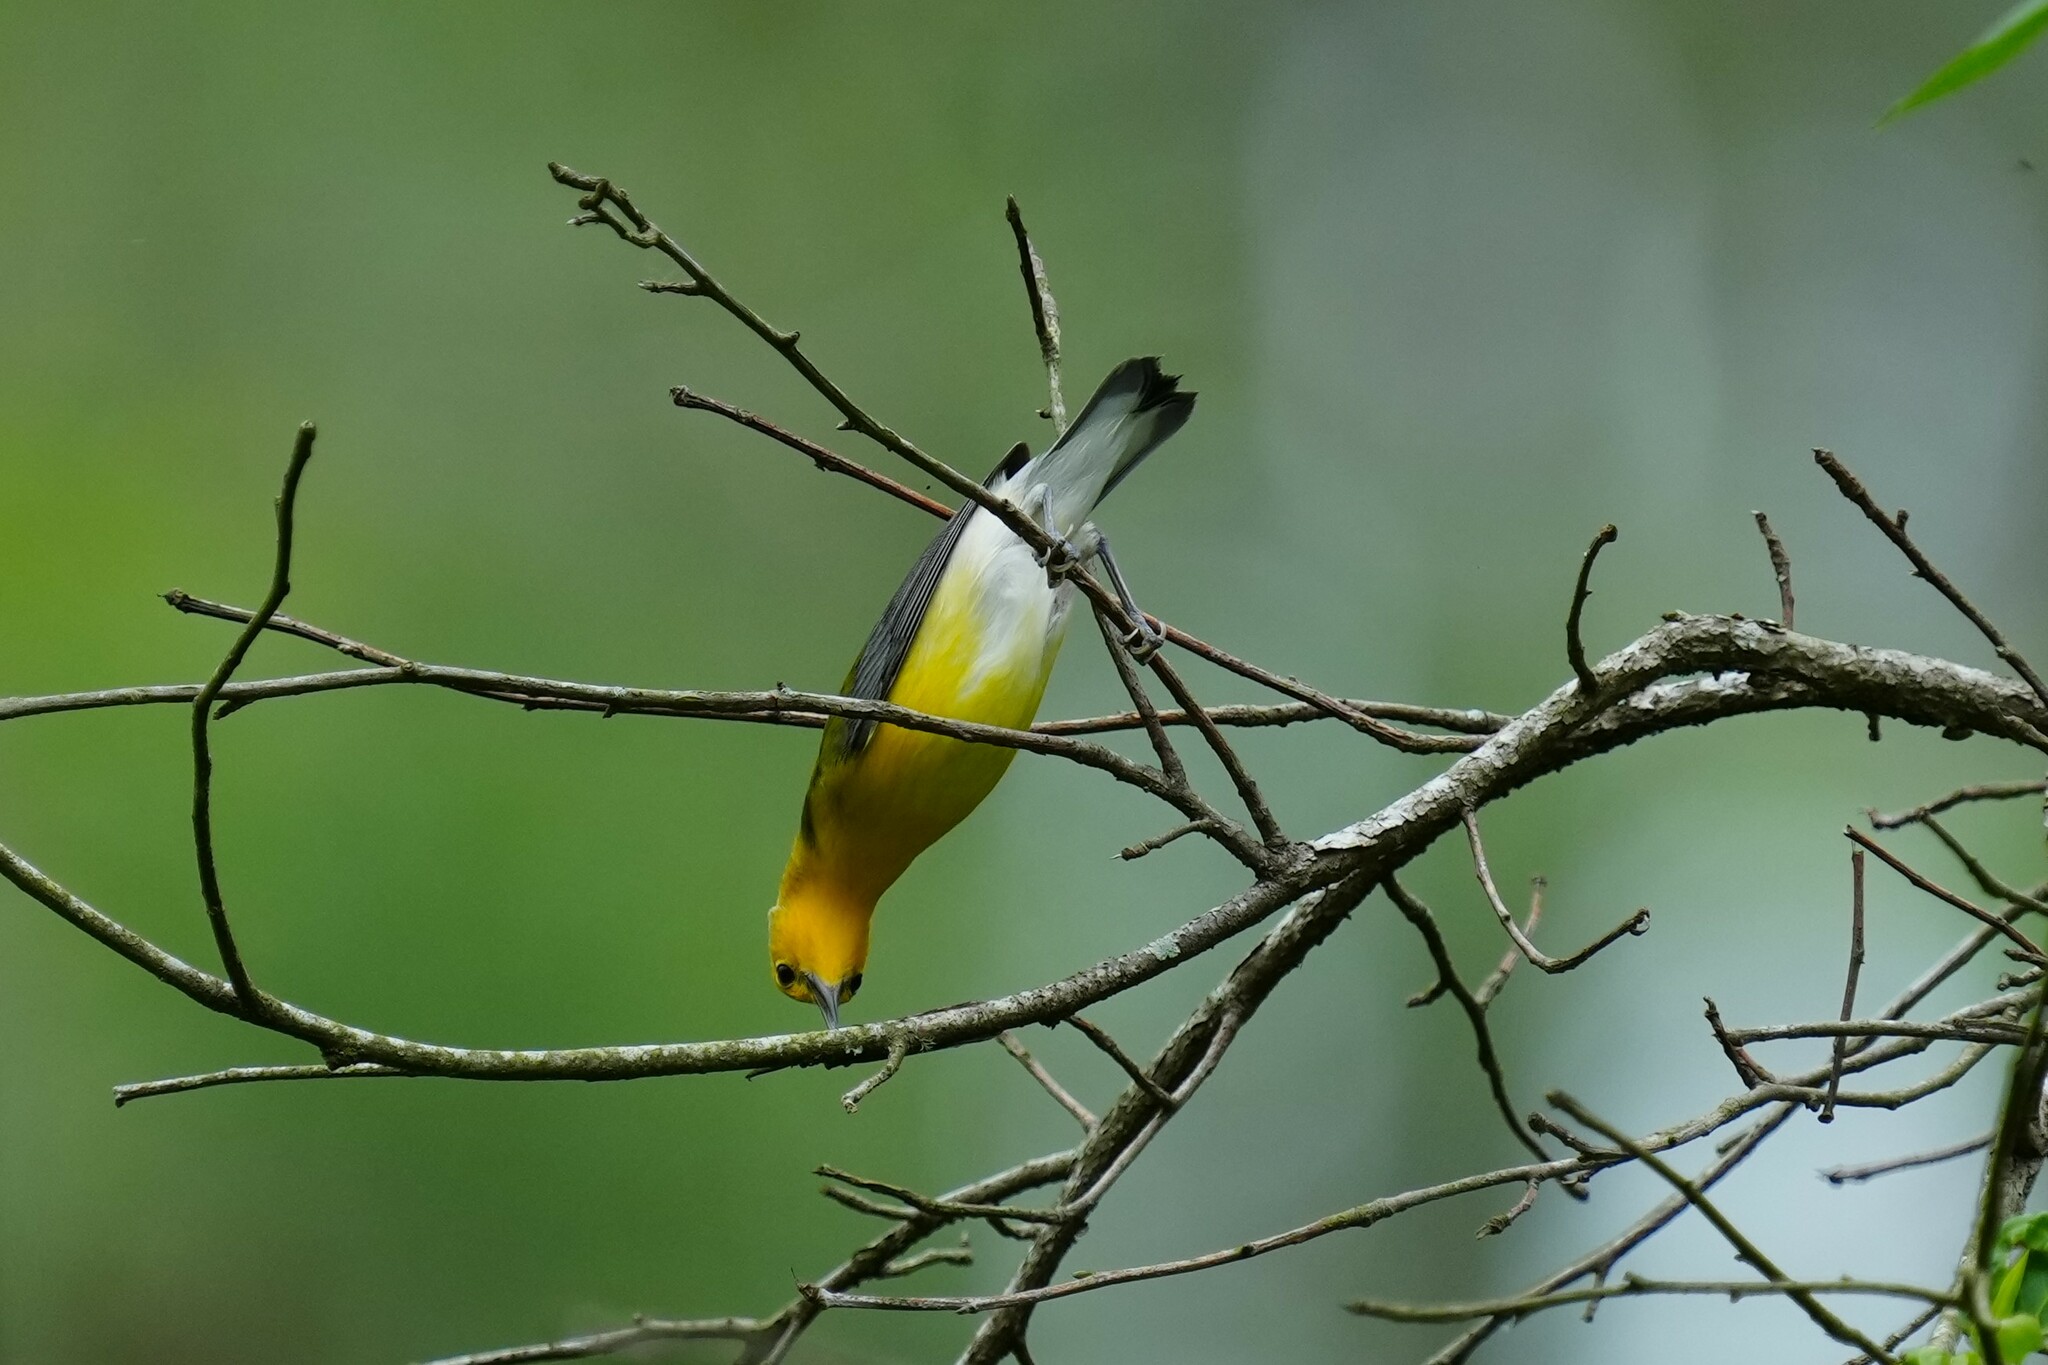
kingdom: Animalia
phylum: Chordata
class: Aves
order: Passeriformes
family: Parulidae
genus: Protonotaria
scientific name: Protonotaria citrea
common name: Prothonotary warbler
